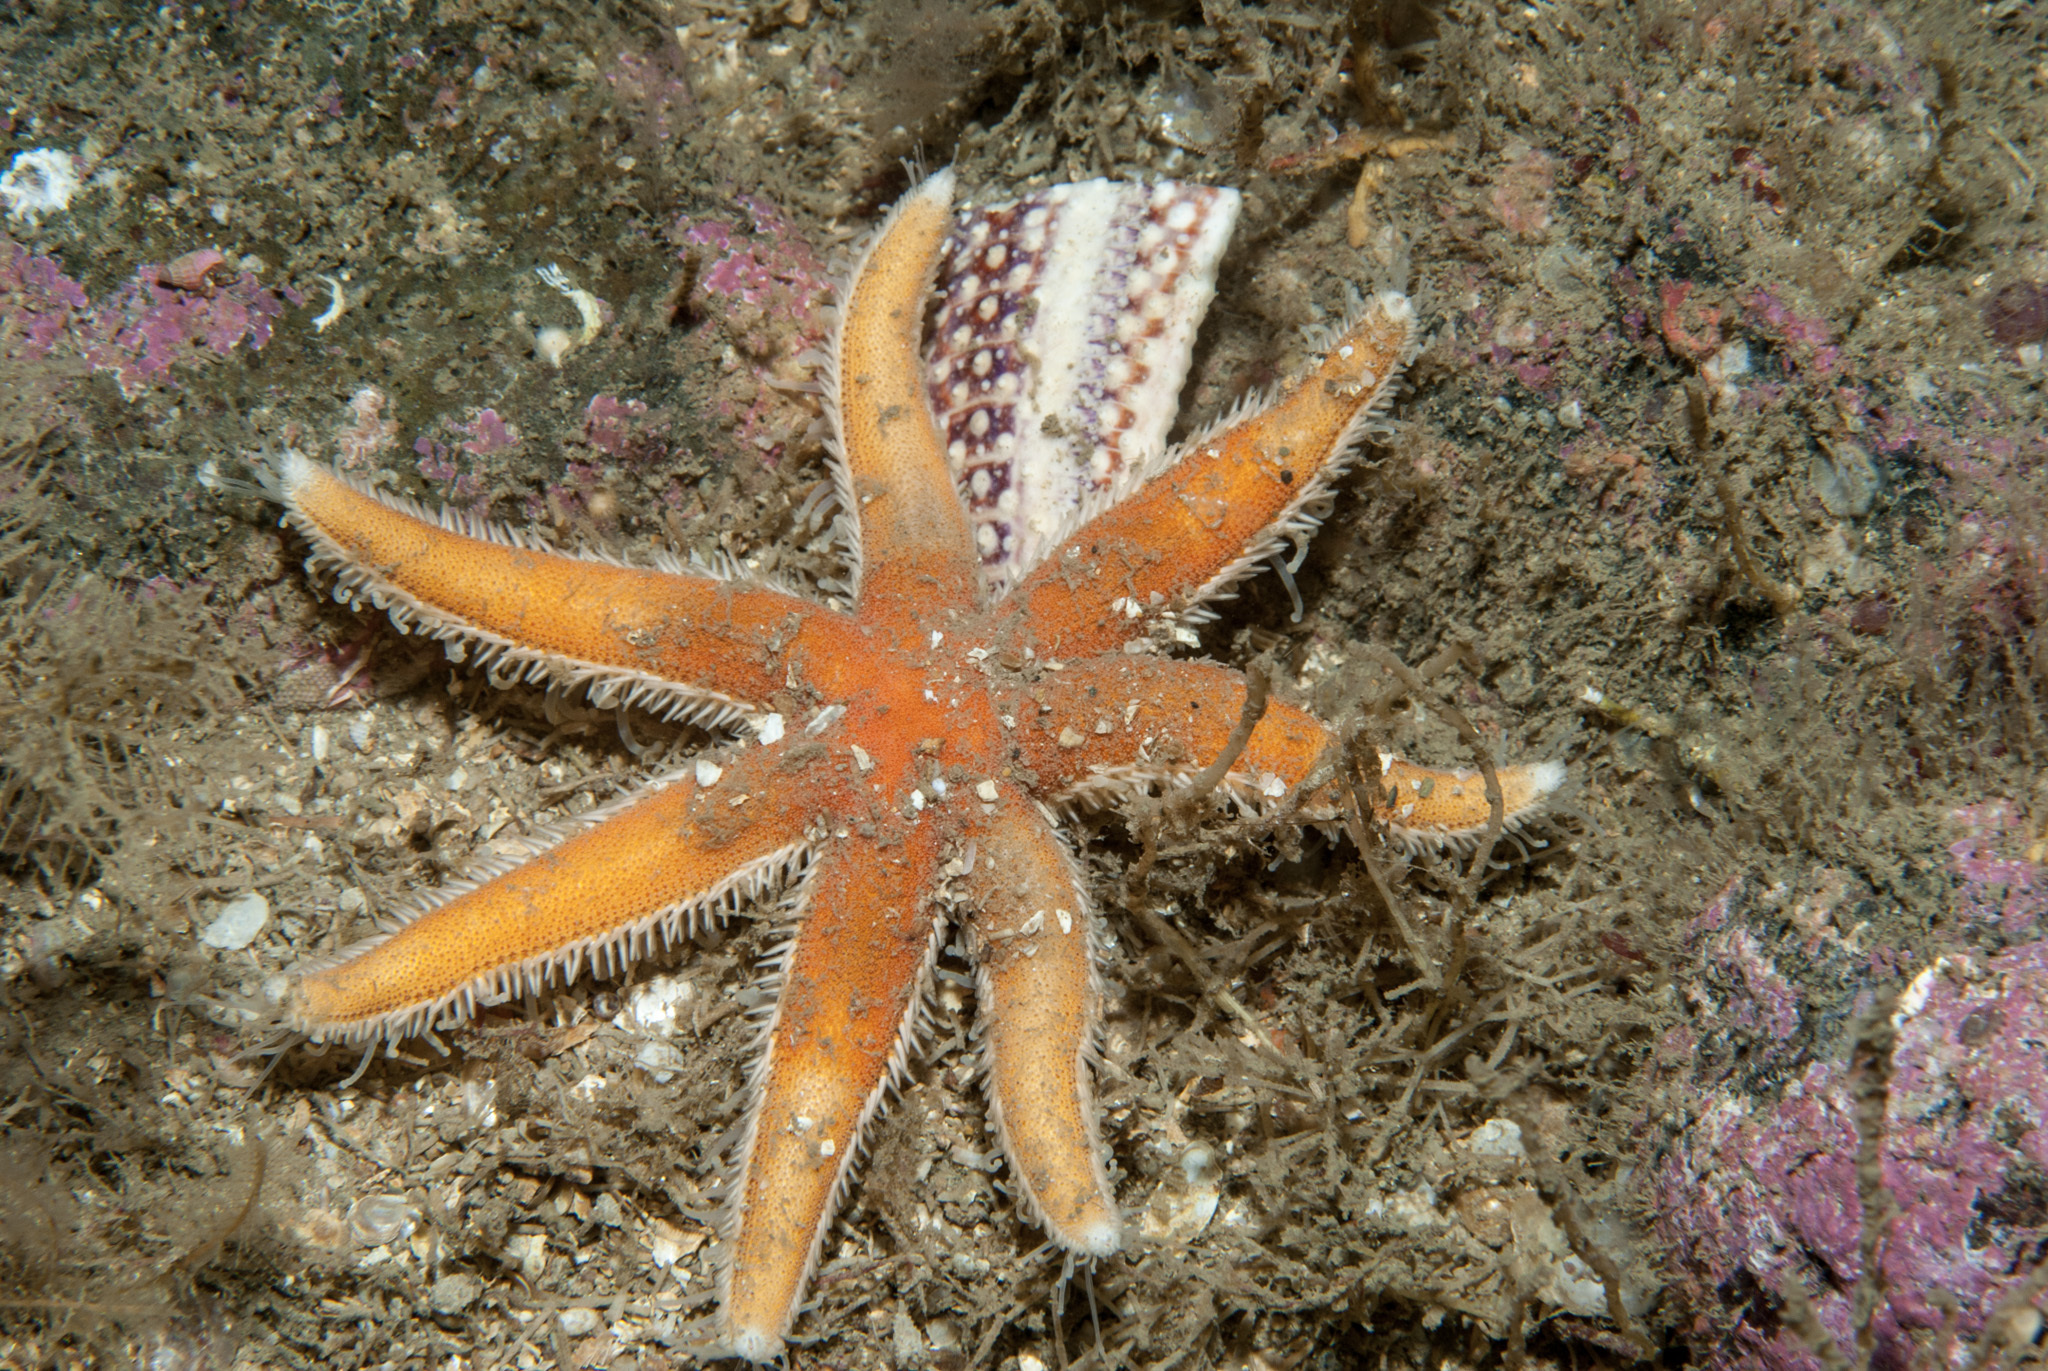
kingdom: Animalia
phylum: Echinodermata
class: Asteroidea
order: Paxillosida
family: Luidiidae
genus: Luidia
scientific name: Luidia ciliaris
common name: Seven-armed starfish
